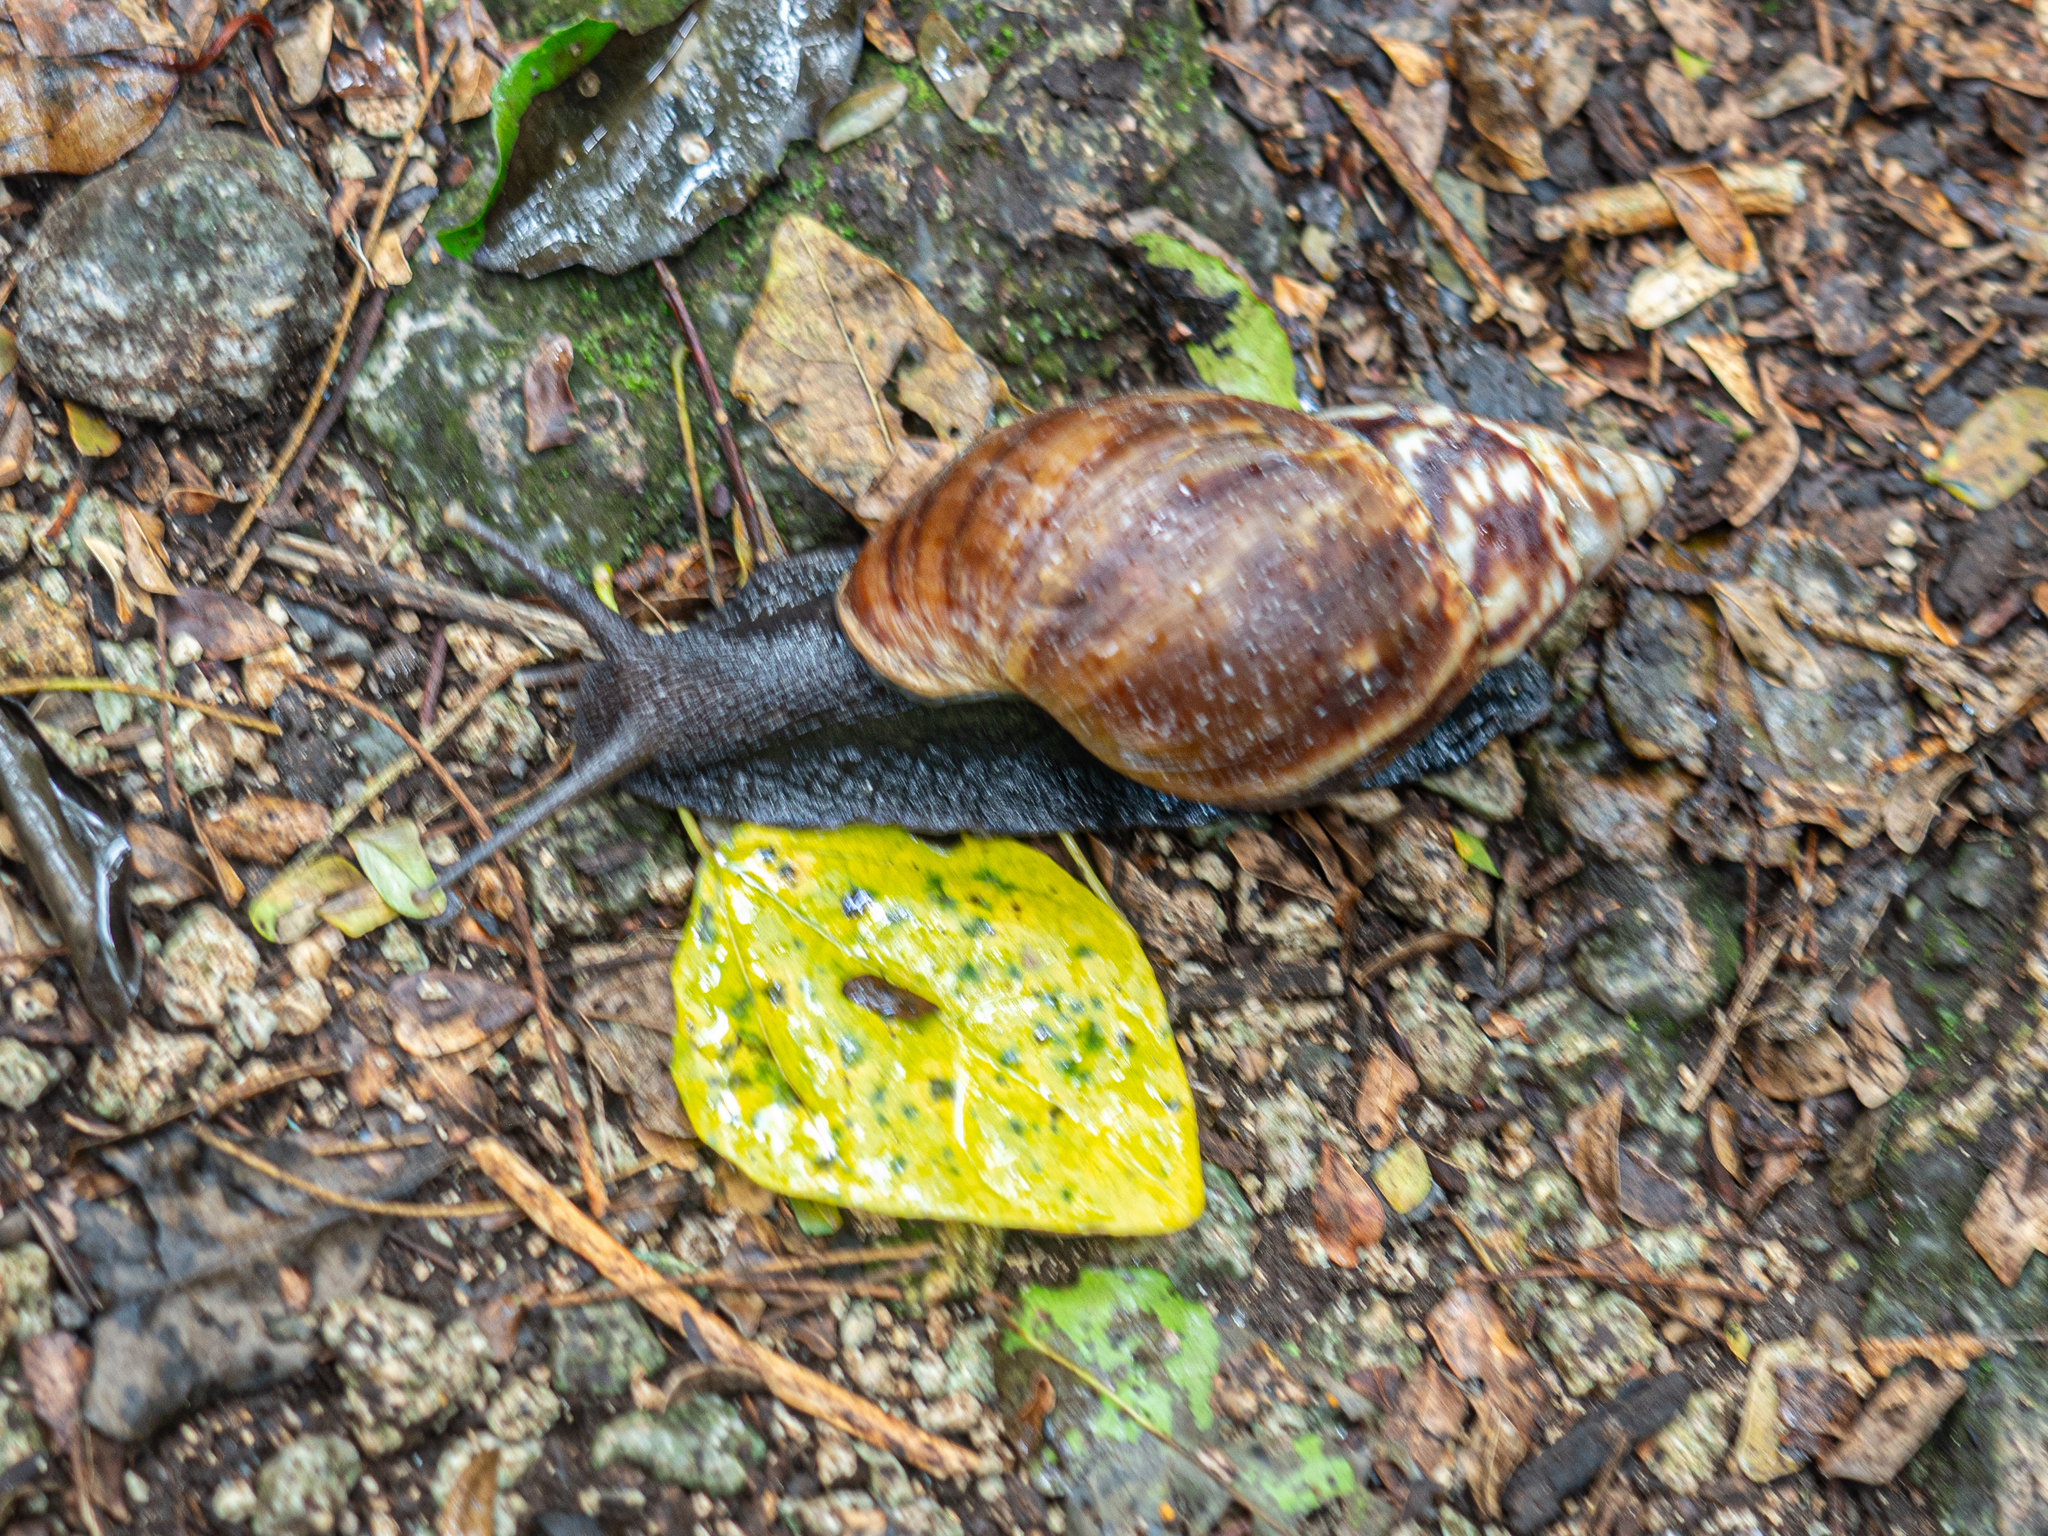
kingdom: Animalia
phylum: Mollusca
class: Gastropoda
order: Stylommatophora
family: Achatinidae
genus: Lissachatina
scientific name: Lissachatina fulica
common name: Giant african snail
